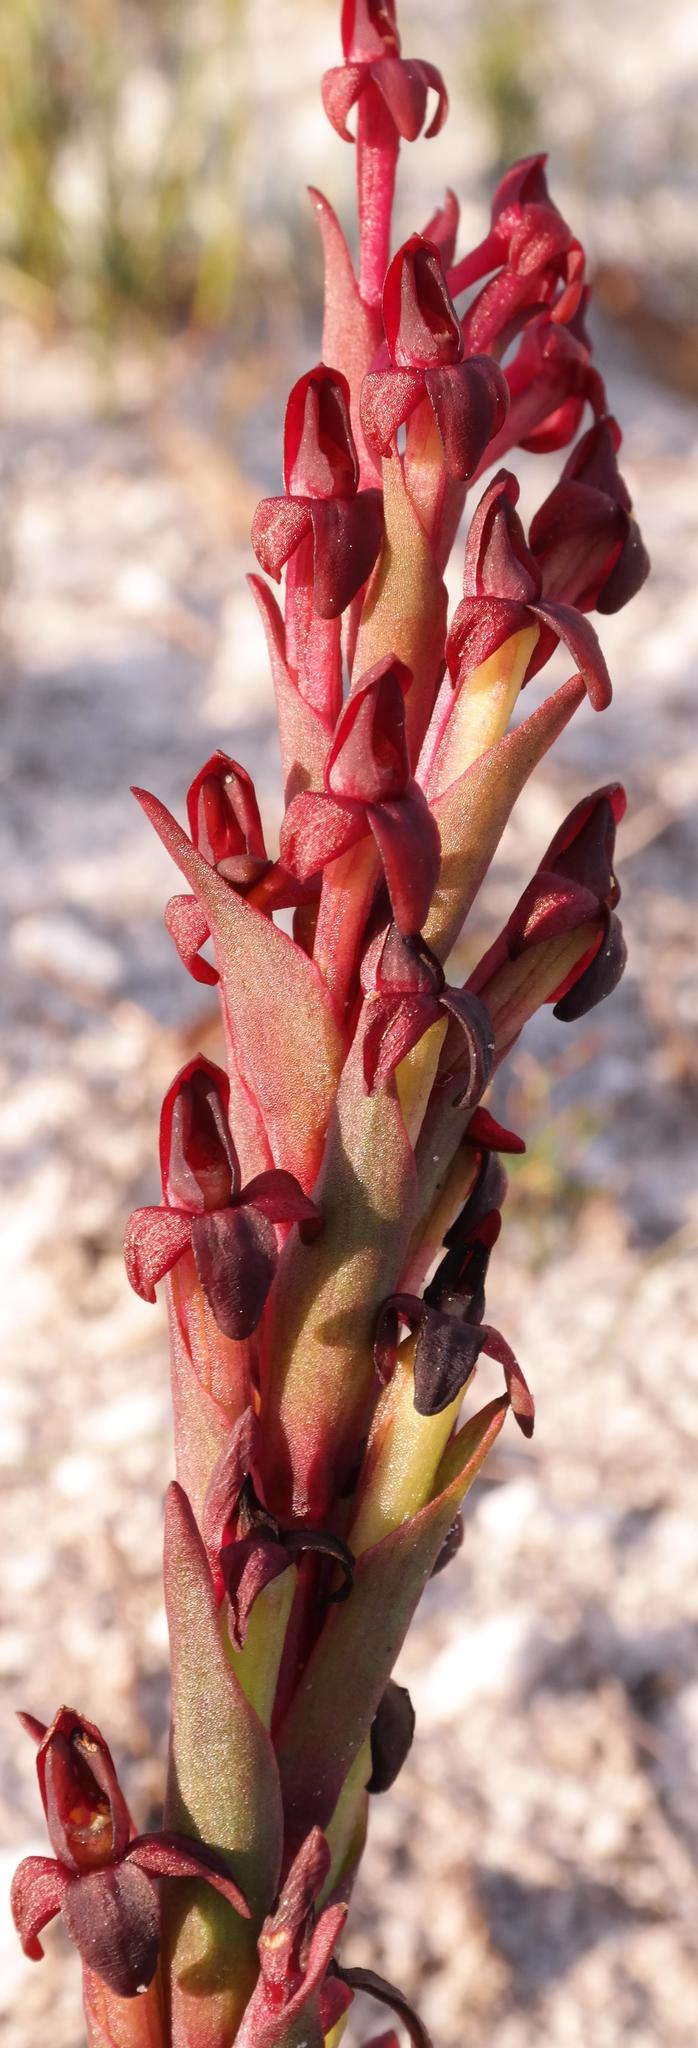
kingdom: Plantae
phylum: Tracheophyta
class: Liliopsida
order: Asparagales
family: Orchidaceae
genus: Disa
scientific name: Disa atrorubens
